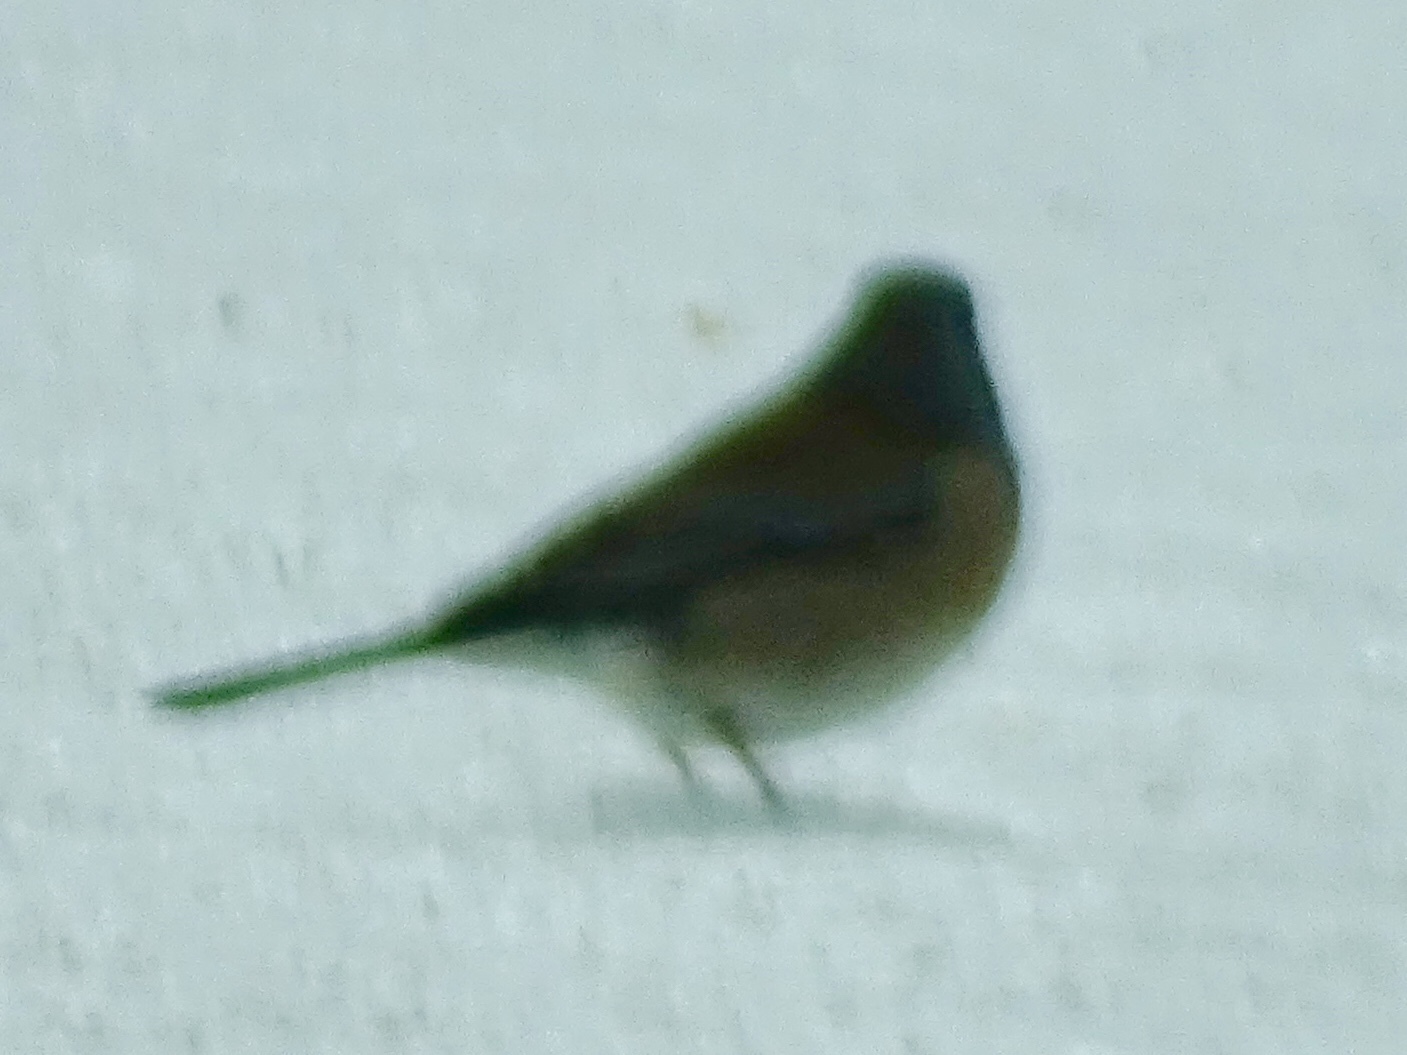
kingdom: Animalia
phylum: Chordata
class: Aves
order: Passeriformes
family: Passerellidae
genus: Junco
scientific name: Junco hyemalis
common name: Dark-eyed junco
